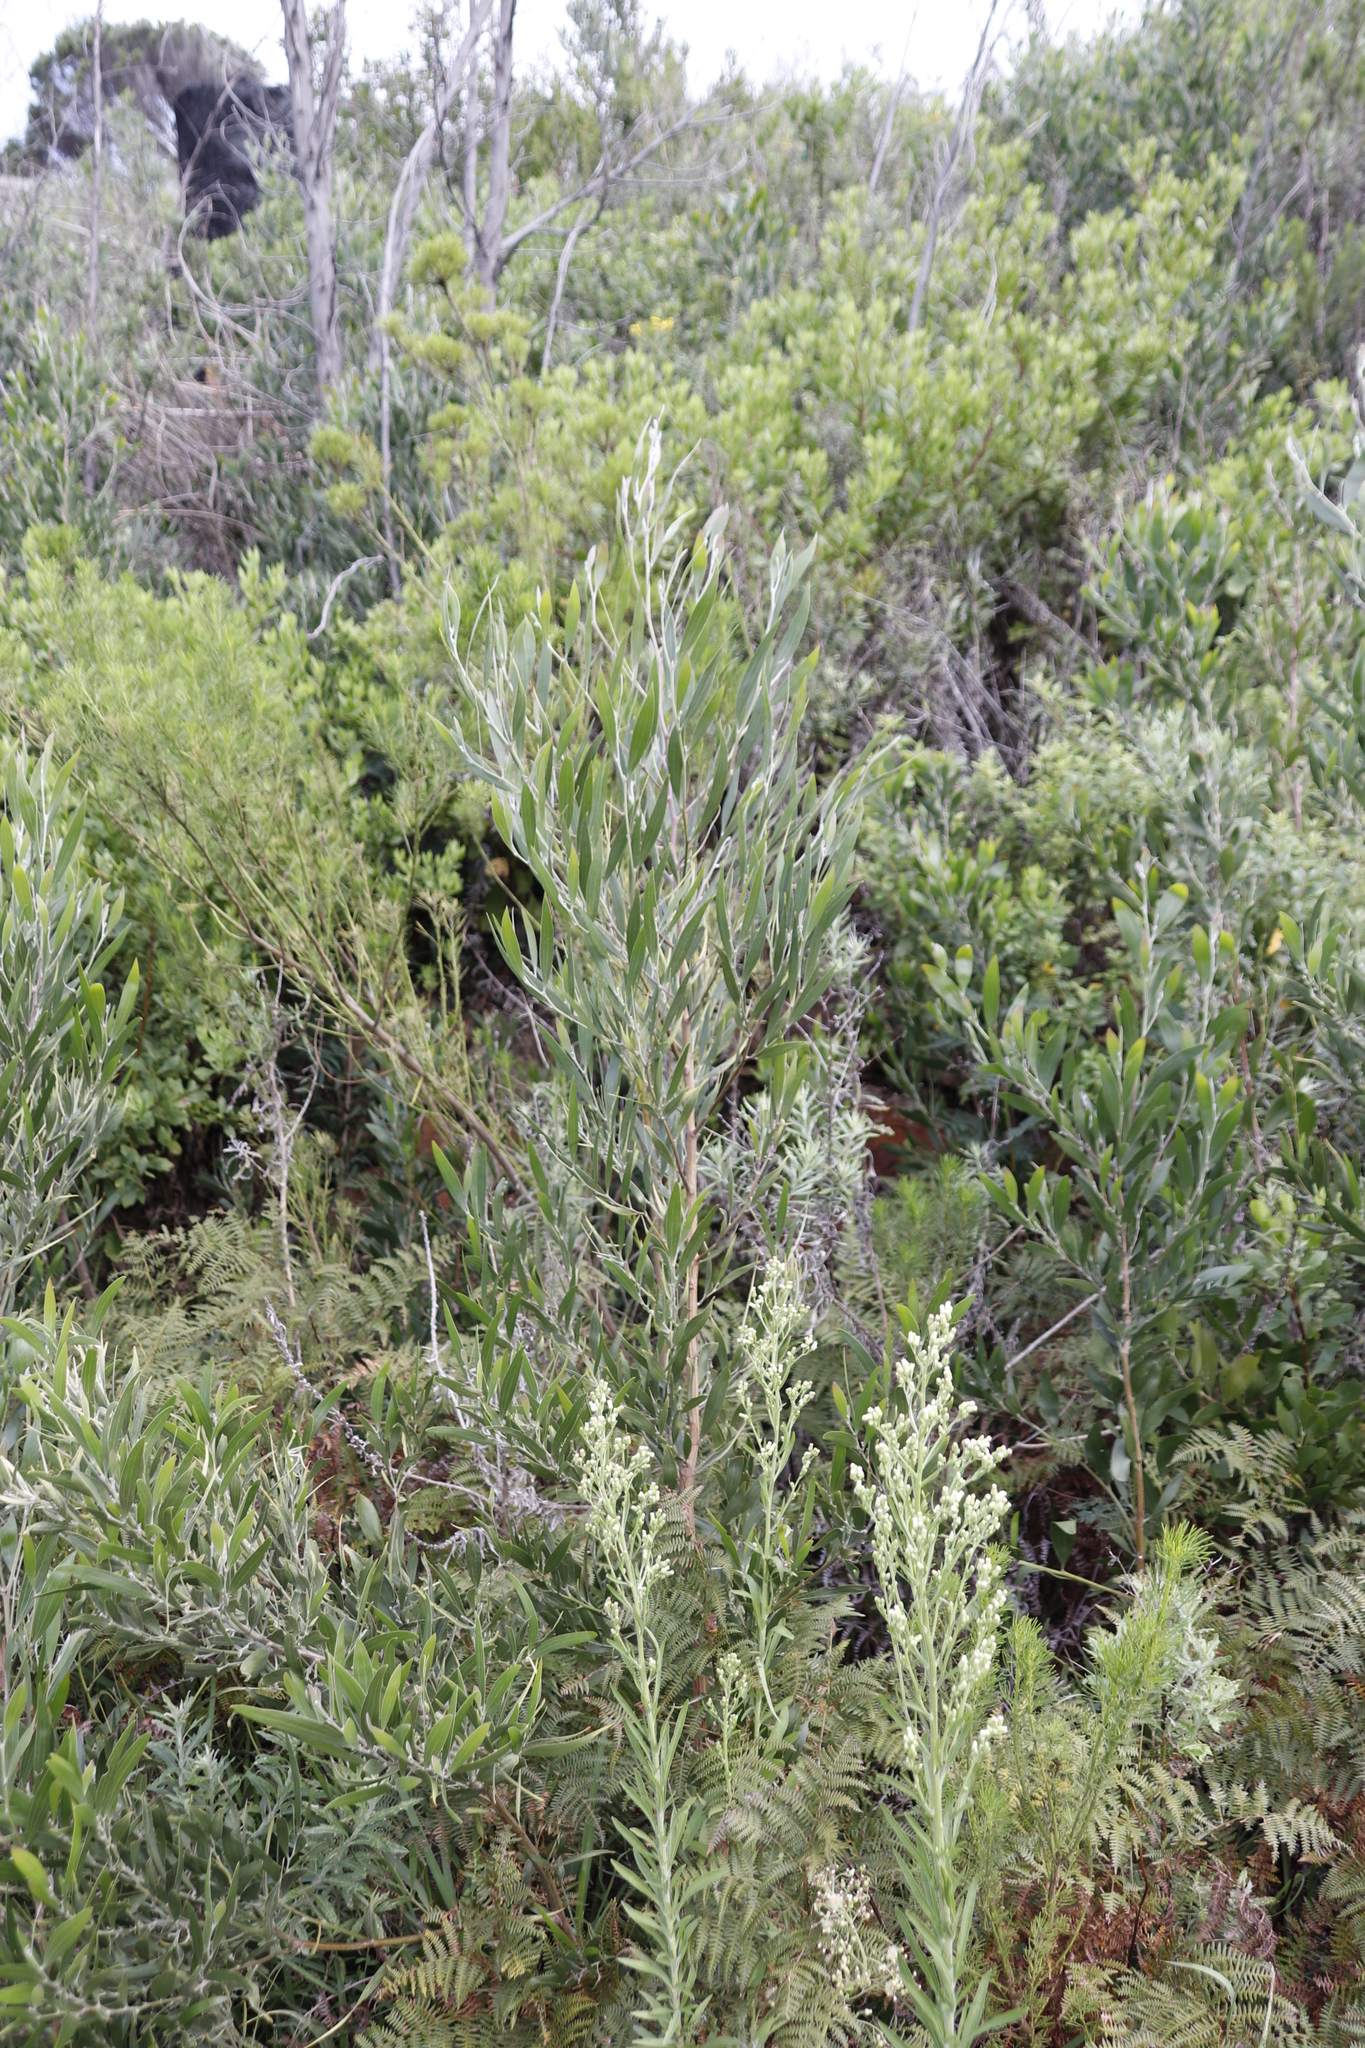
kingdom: Plantae
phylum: Tracheophyta
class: Magnoliopsida
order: Fabales
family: Fabaceae
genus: Acacia
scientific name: Acacia melanoxylon
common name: Blackwood
